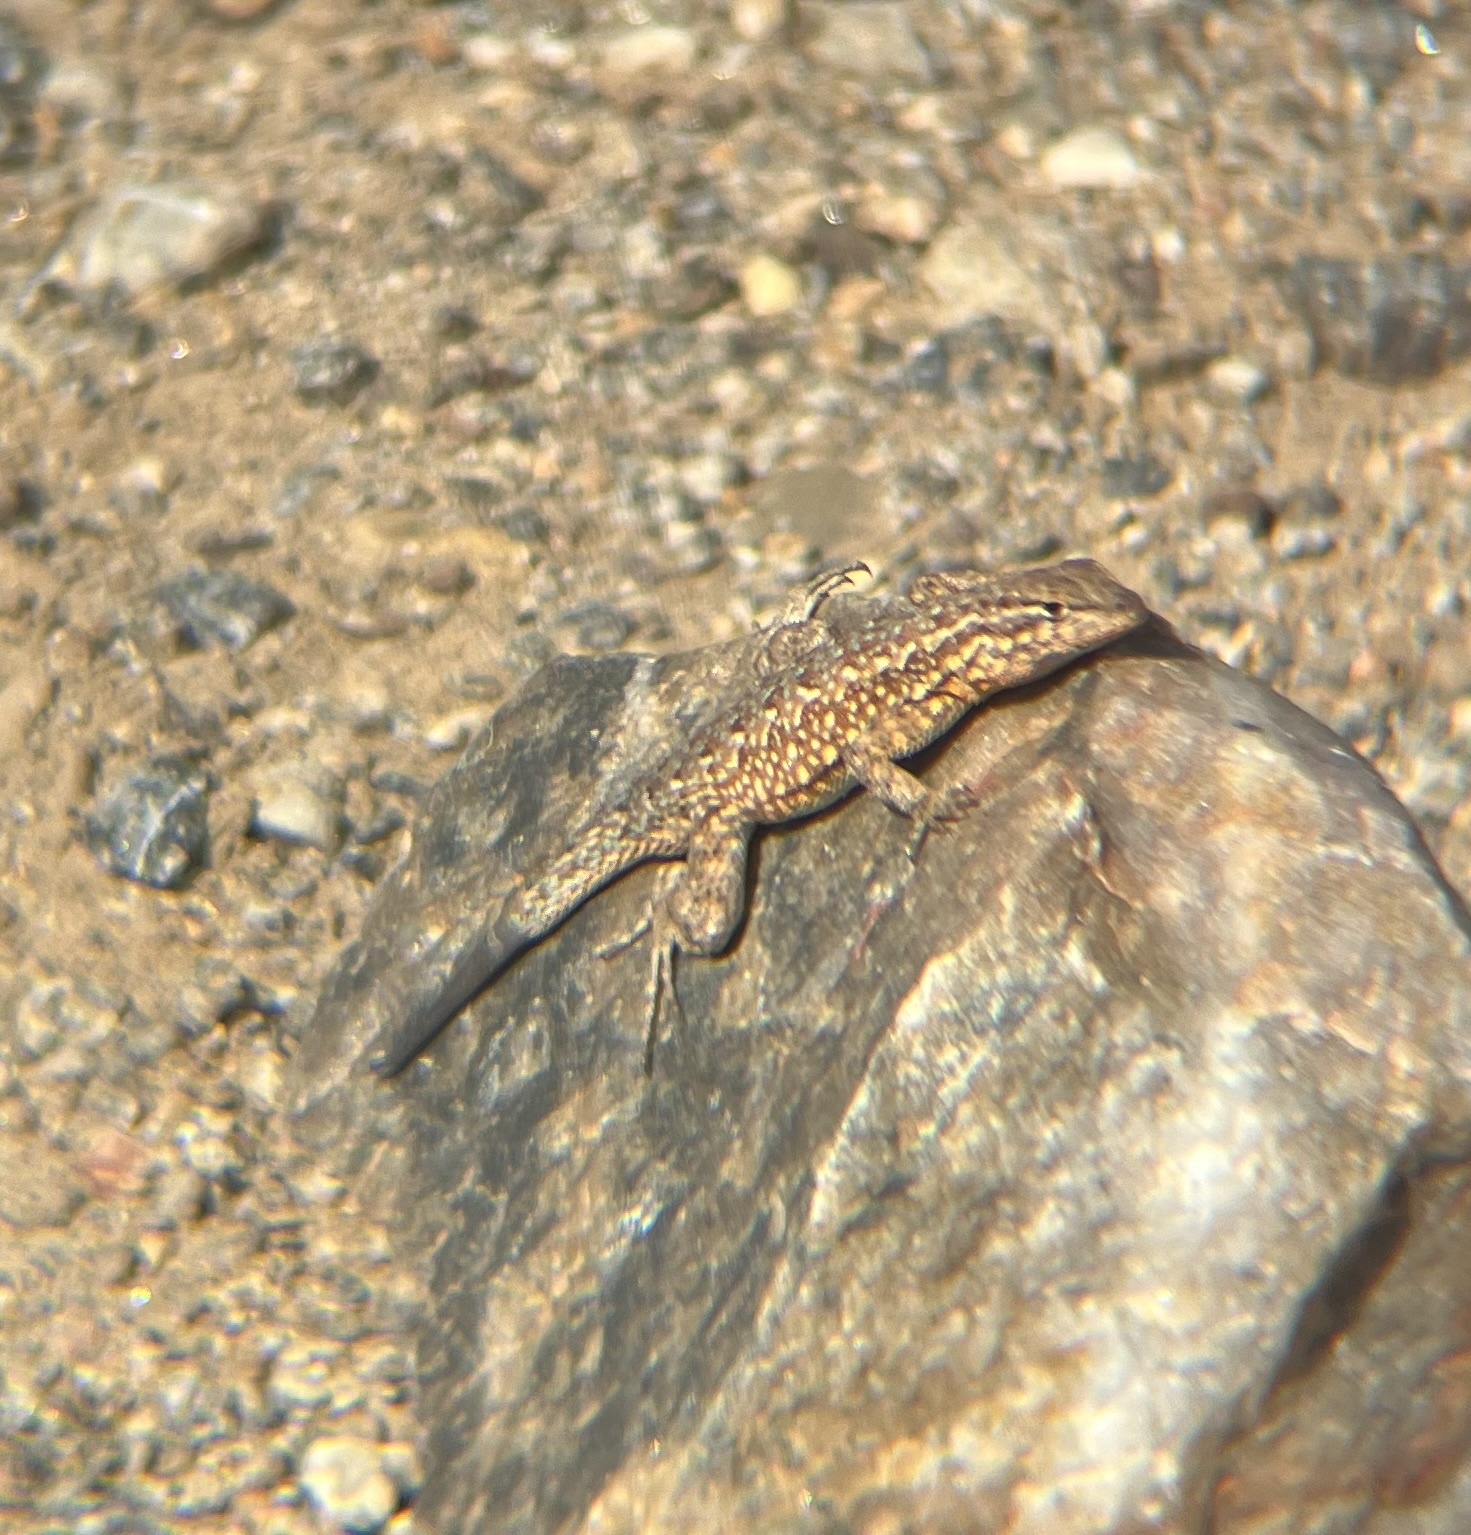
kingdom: Animalia
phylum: Chordata
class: Squamata
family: Phrynosomatidae
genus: Uta
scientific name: Uta stansburiana
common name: Side-blotched lizard
